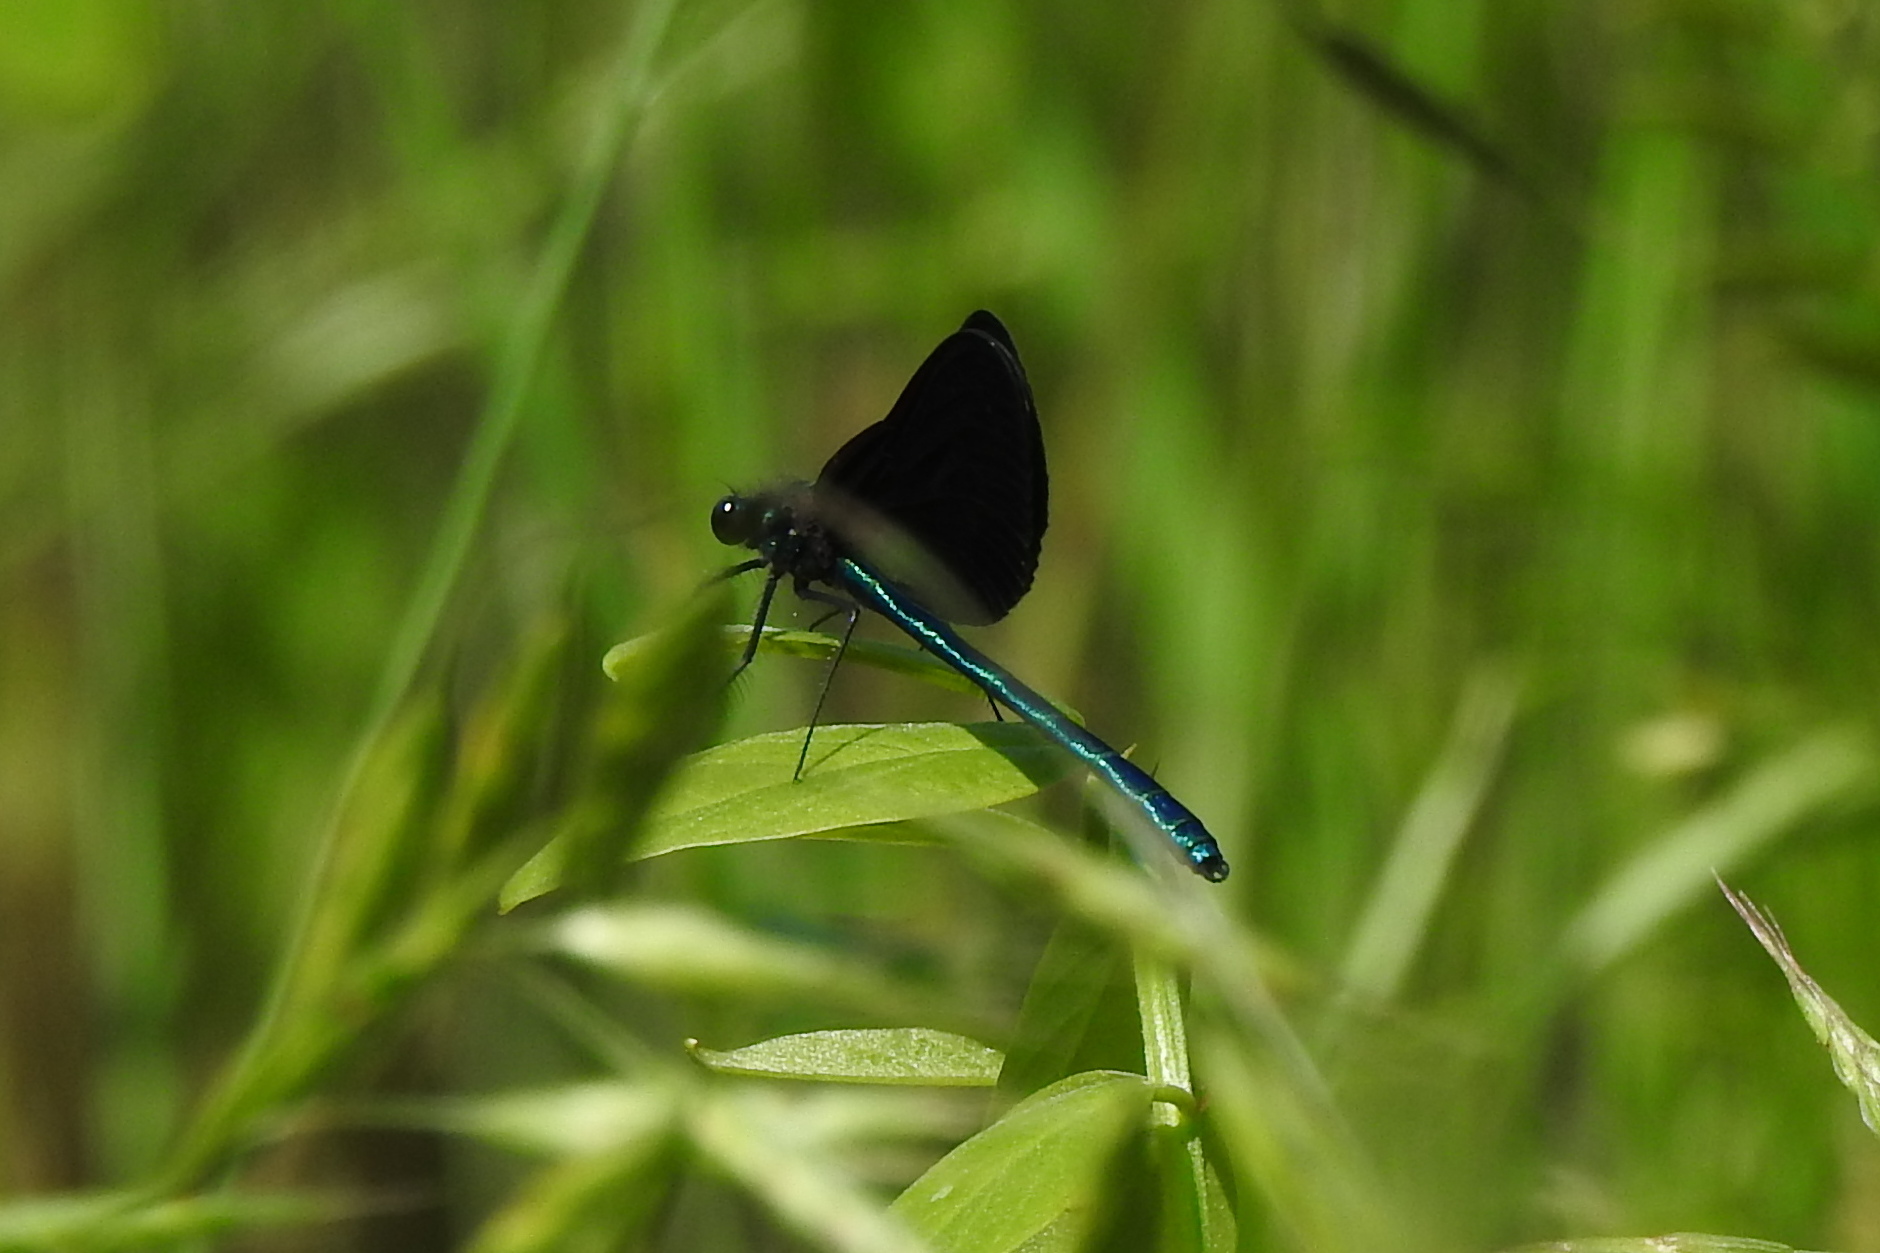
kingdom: Animalia
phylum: Arthropoda
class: Insecta
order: Odonata
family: Calopterygidae
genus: Calopteryx
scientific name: Calopteryx maculata
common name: Ebony jewelwing
